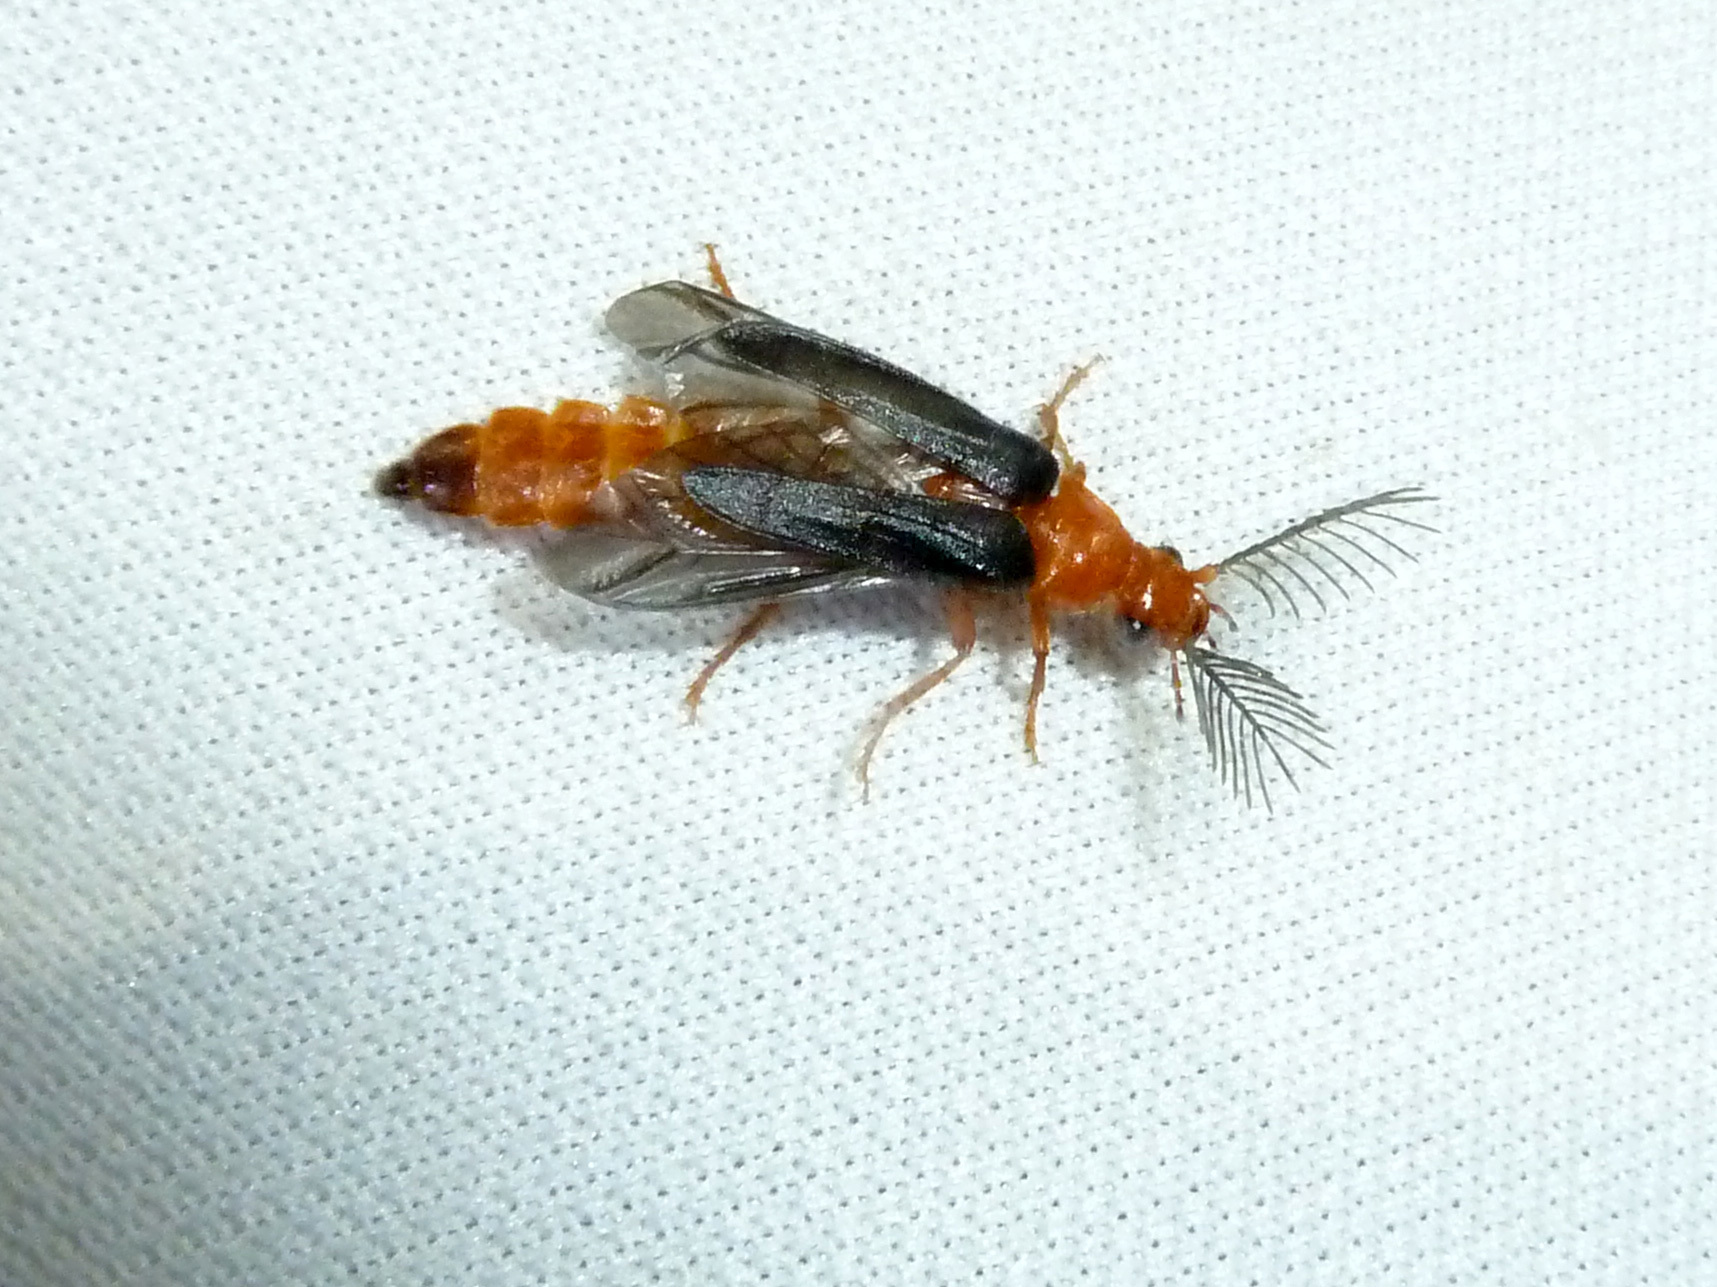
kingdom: Animalia
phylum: Arthropoda
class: Insecta
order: Coleoptera
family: Phengodidae
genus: Zarhipis
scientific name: Zarhipis integripennis
